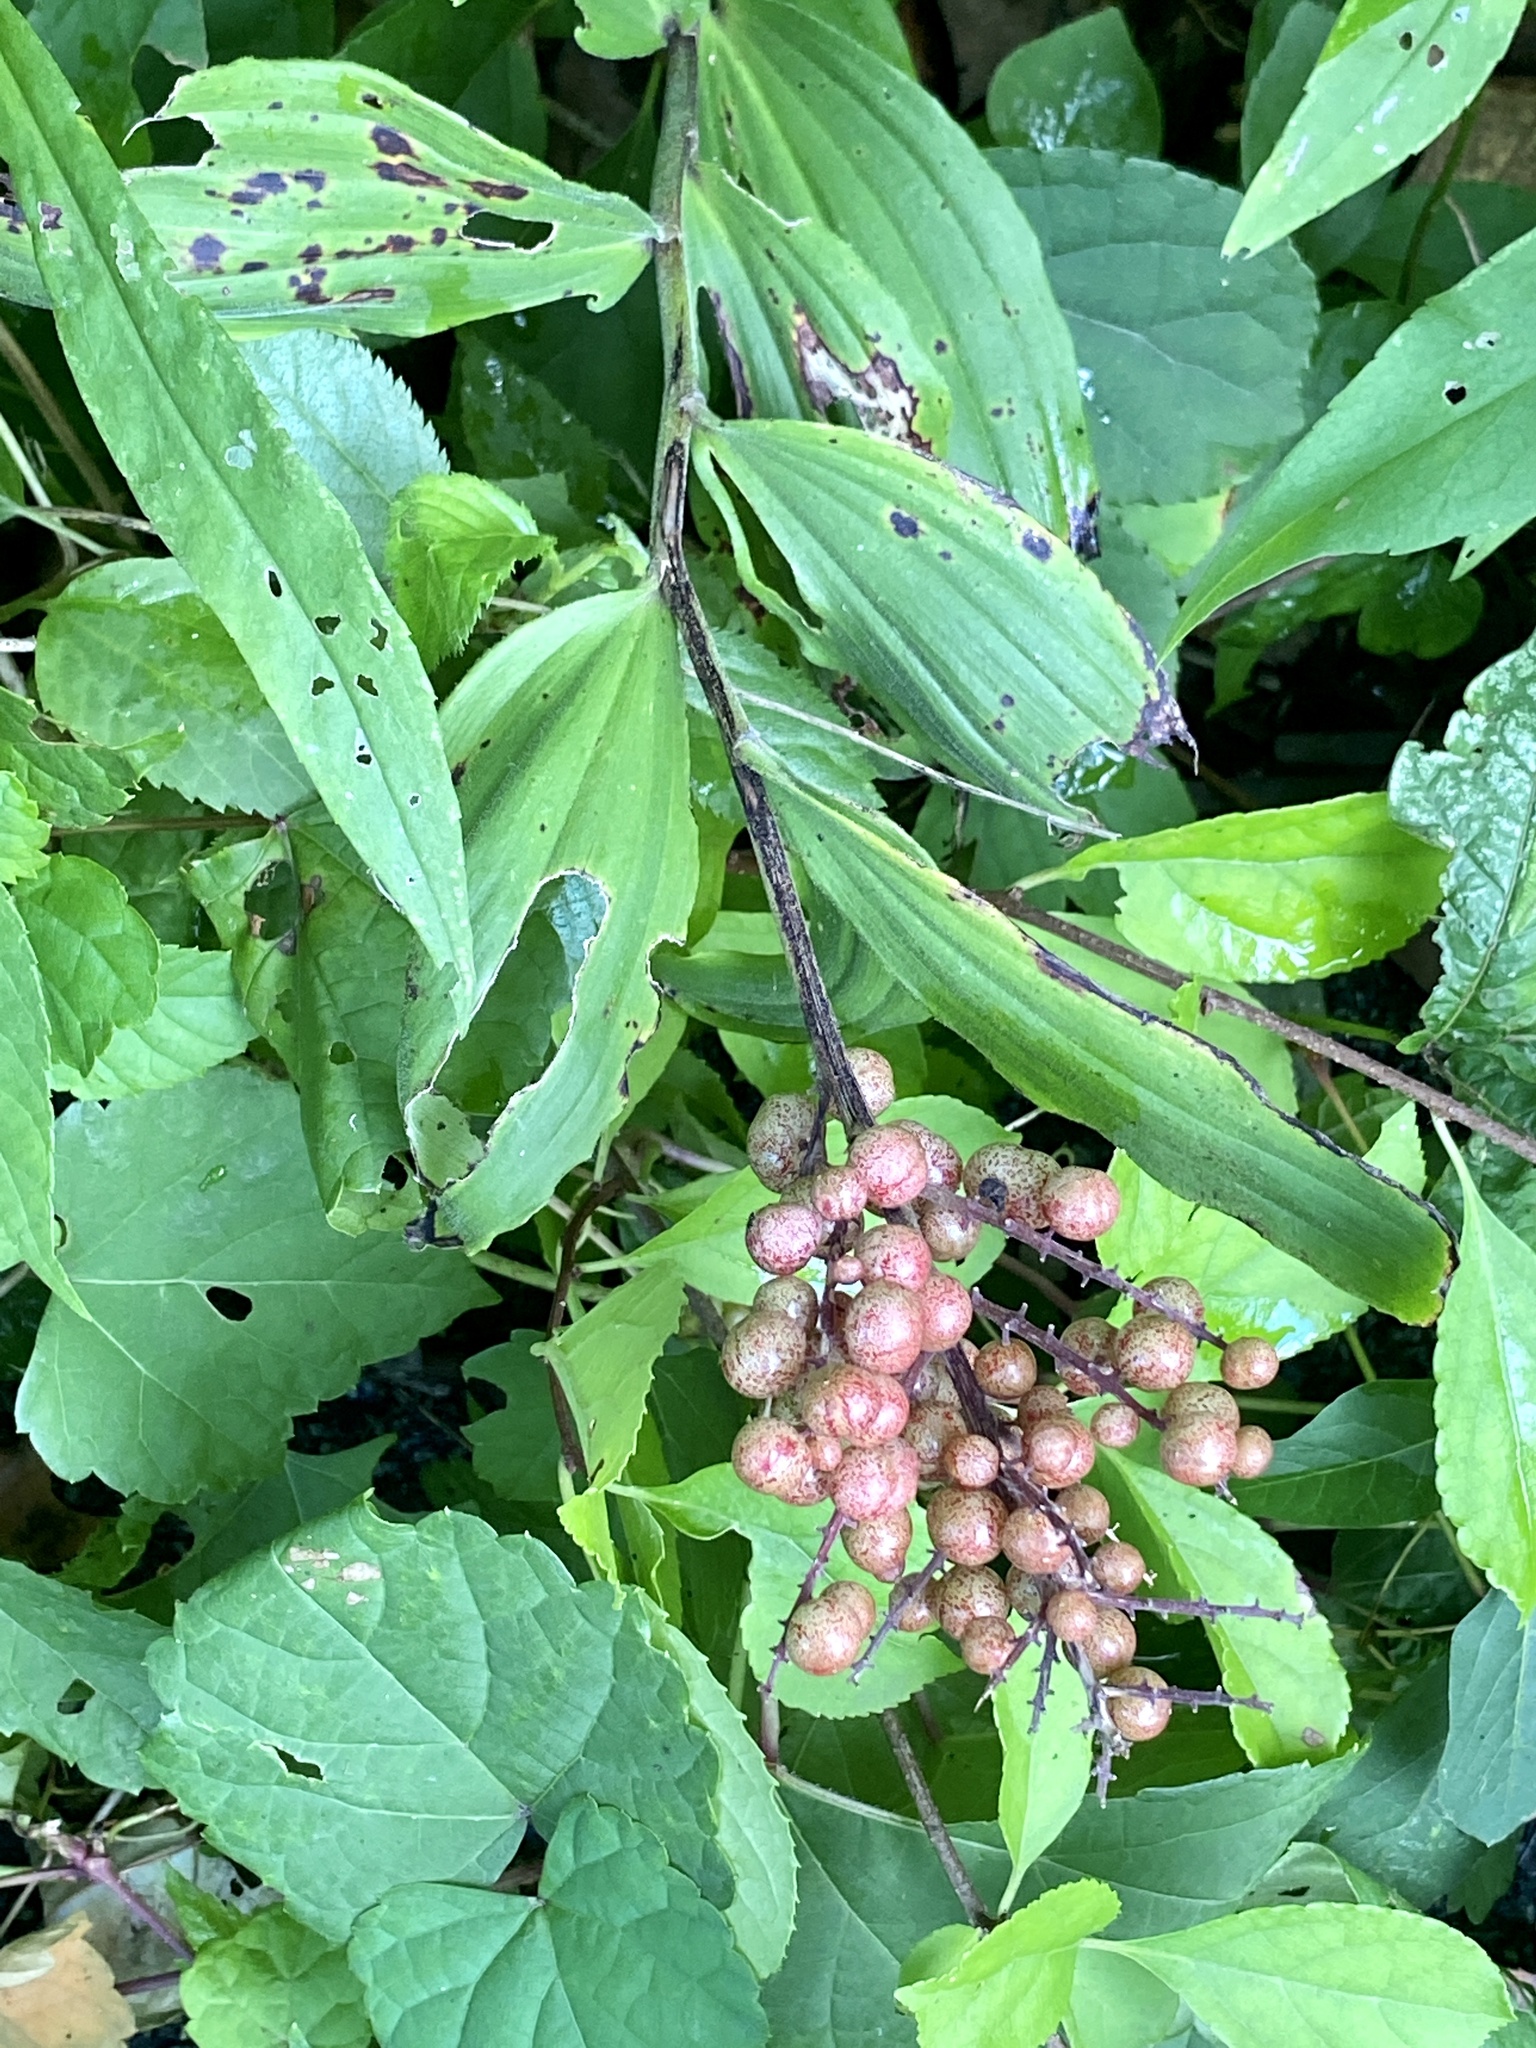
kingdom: Plantae
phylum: Tracheophyta
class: Liliopsida
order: Asparagales
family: Asparagaceae
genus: Maianthemum
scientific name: Maianthemum racemosum
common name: False spikenard
